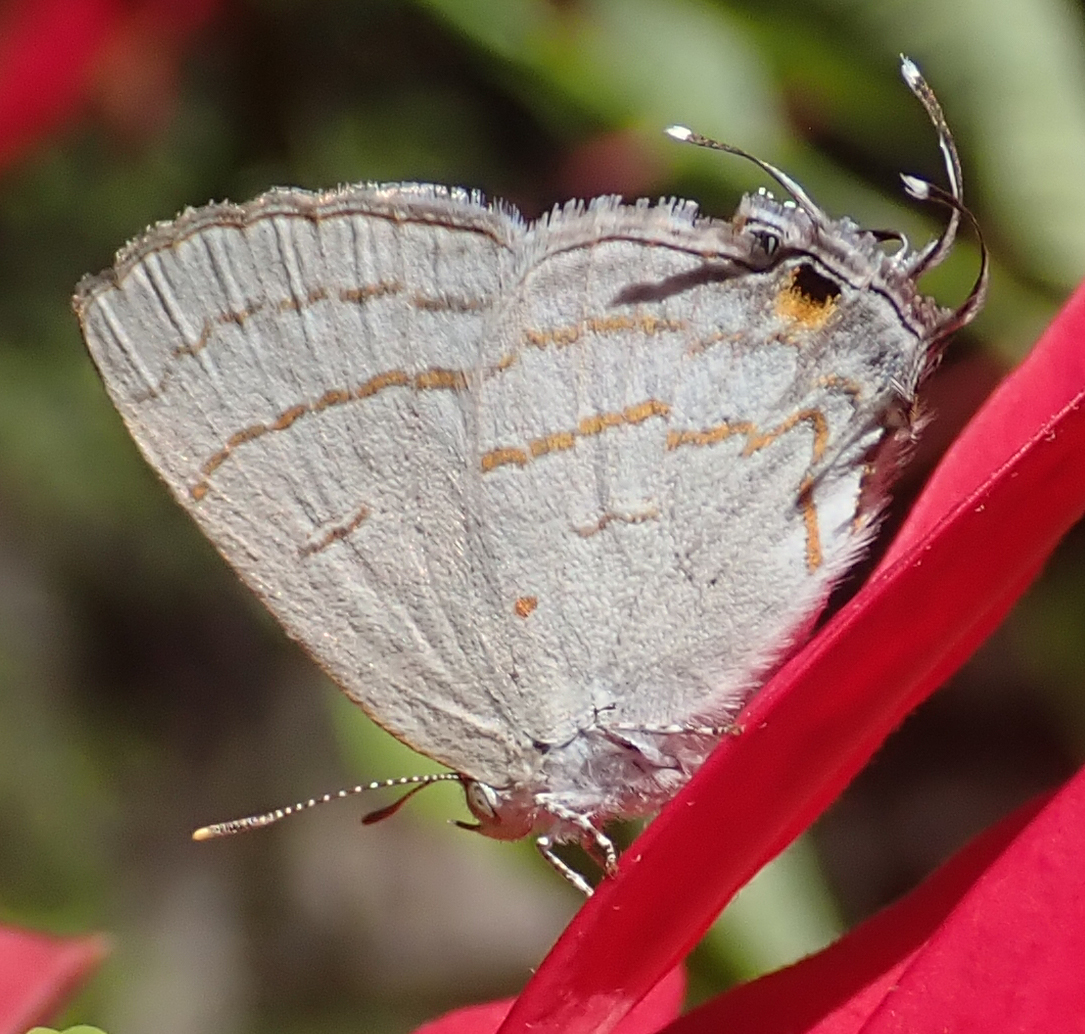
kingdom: Animalia
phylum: Arthropoda
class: Insecta
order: Lepidoptera
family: Lycaenidae
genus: Hypolycaena
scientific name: Hypolycaena philippus
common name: Common hairstreak
